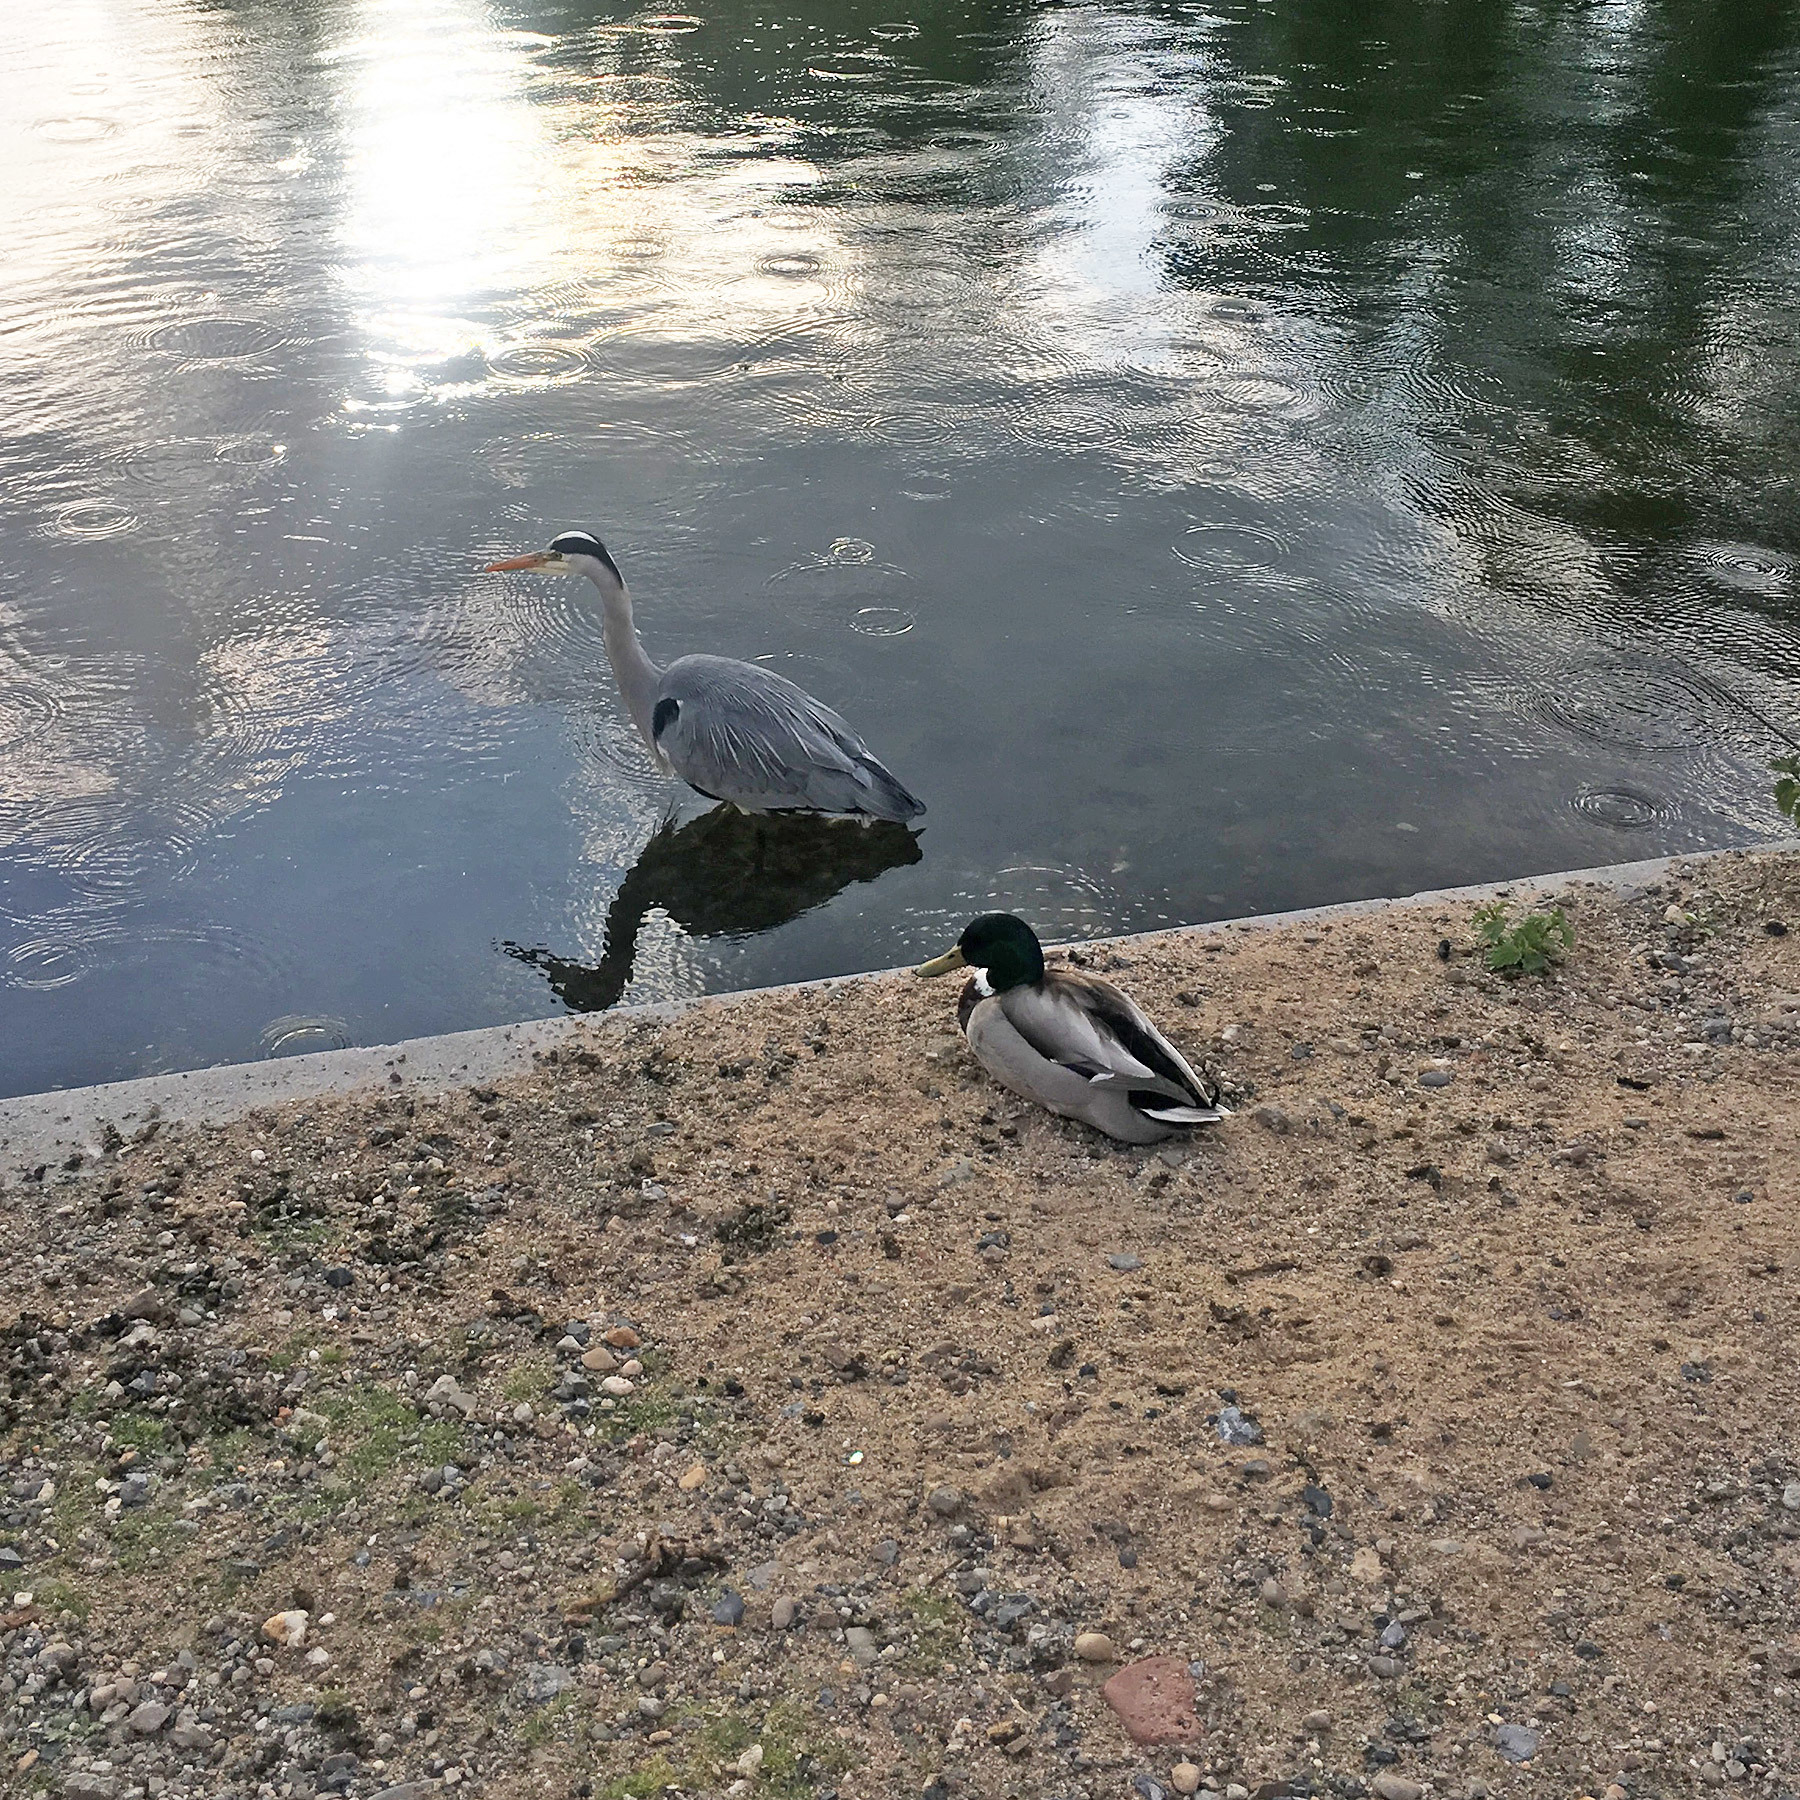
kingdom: Animalia
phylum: Chordata
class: Aves
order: Pelecaniformes
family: Ardeidae
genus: Ardea
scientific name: Ardea cinerea
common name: Grey heron
